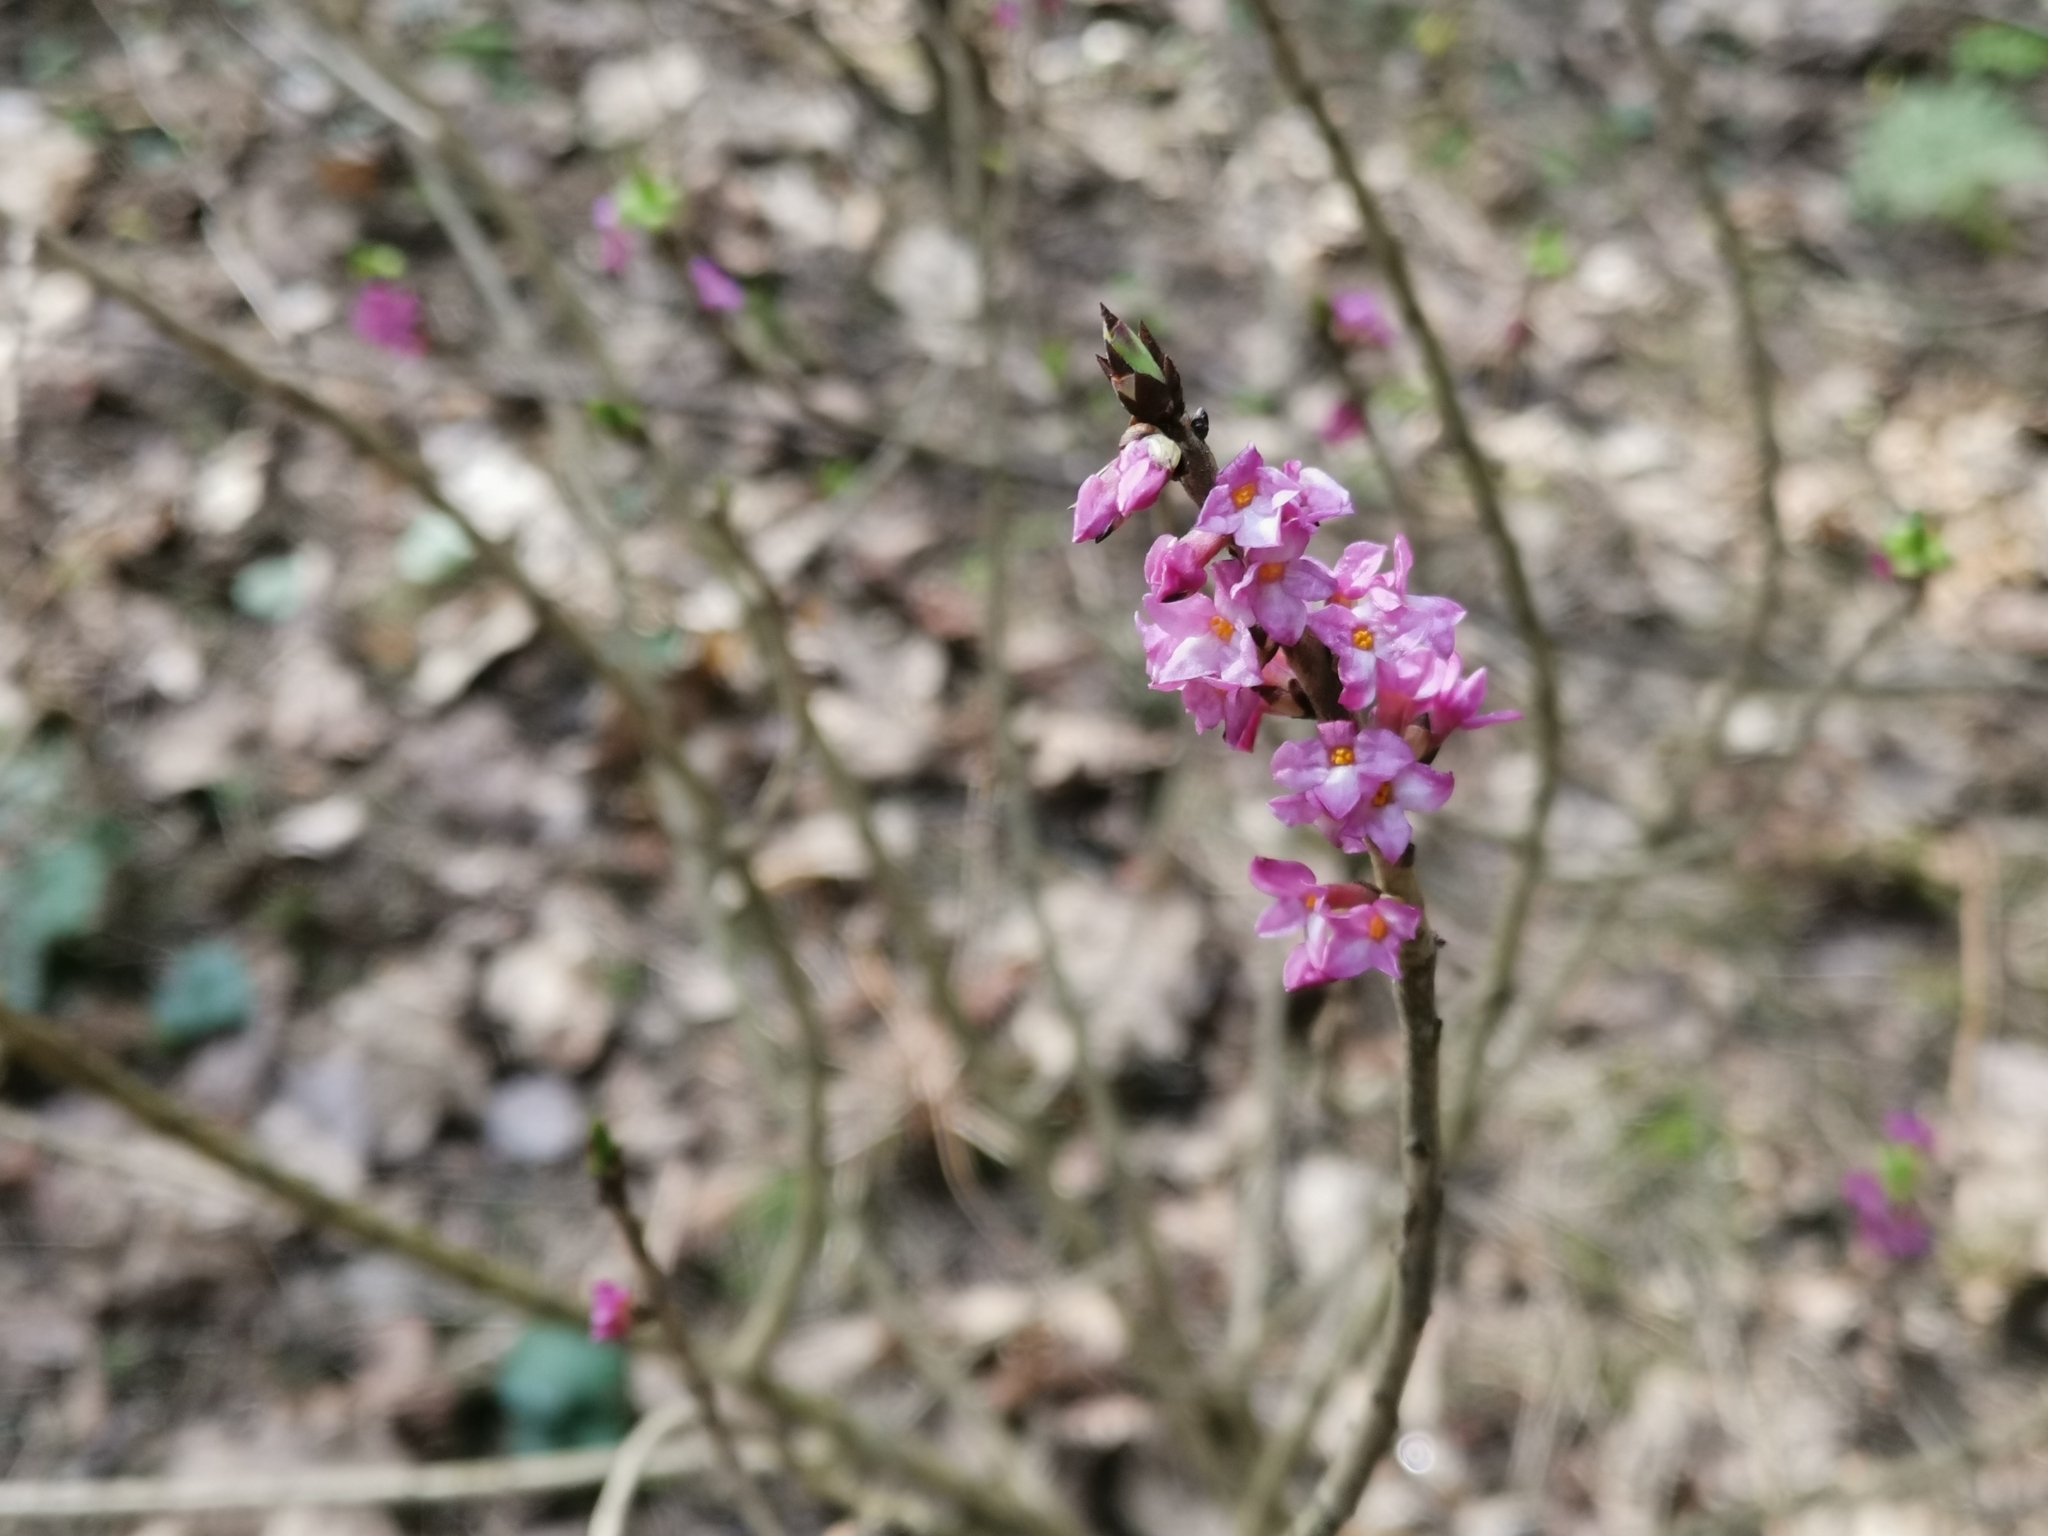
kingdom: Plantae
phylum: Tracheophyta
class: Magnoliopsida
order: Malvales
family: Thymelaeaceae
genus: Daphne
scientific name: Daphne mezereum
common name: Mezereon
